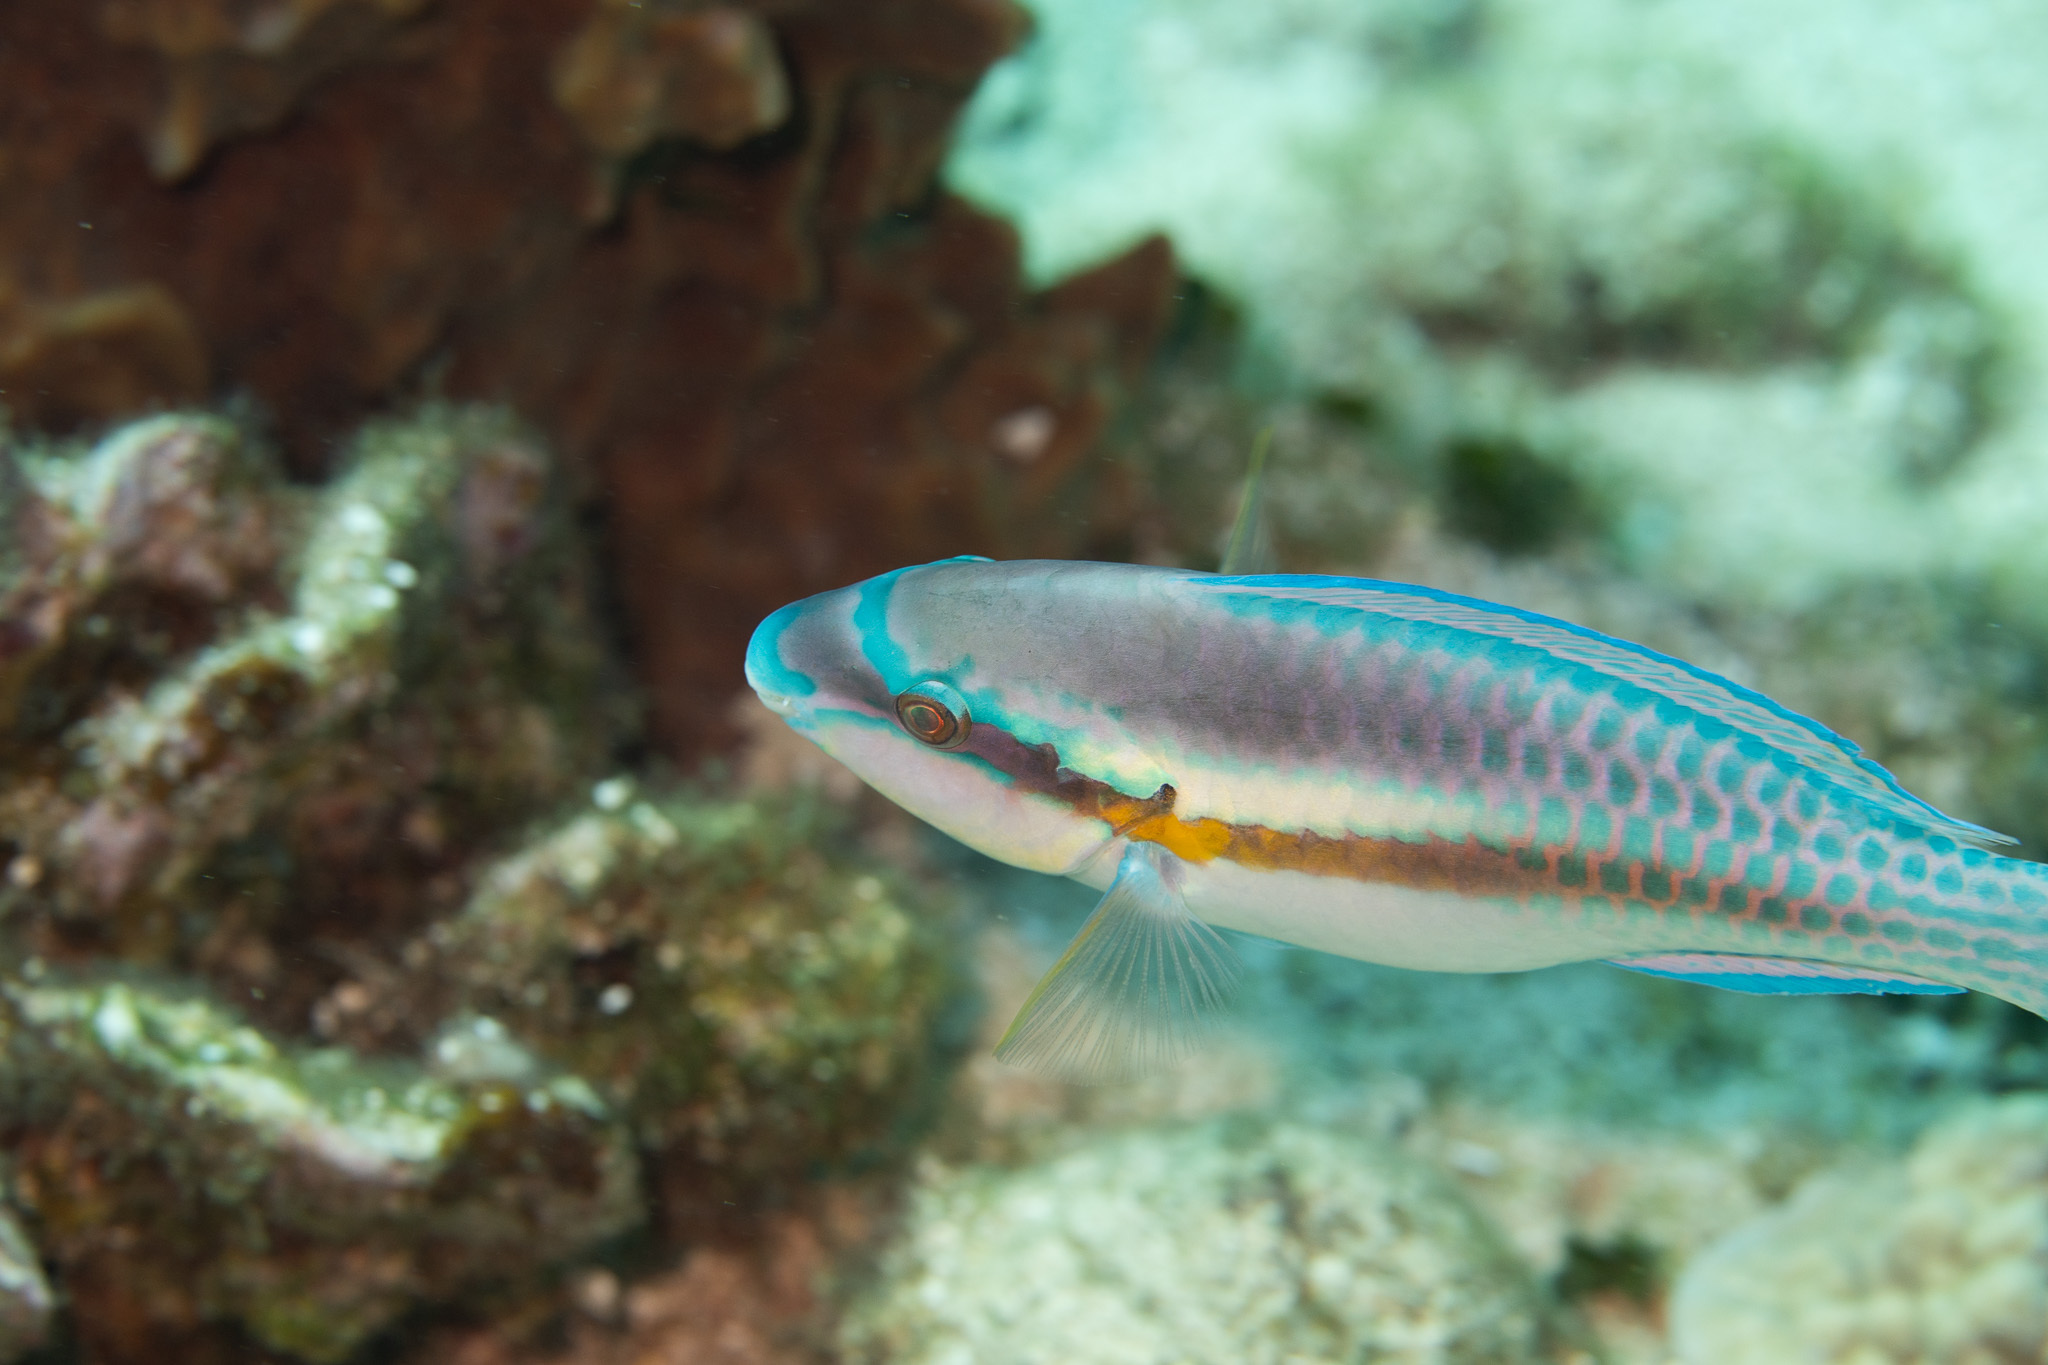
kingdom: Animalia
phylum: Chordata
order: Perciformes
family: Scaridae
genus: Scarus
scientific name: Scarus iseri
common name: Striped parrotfish
